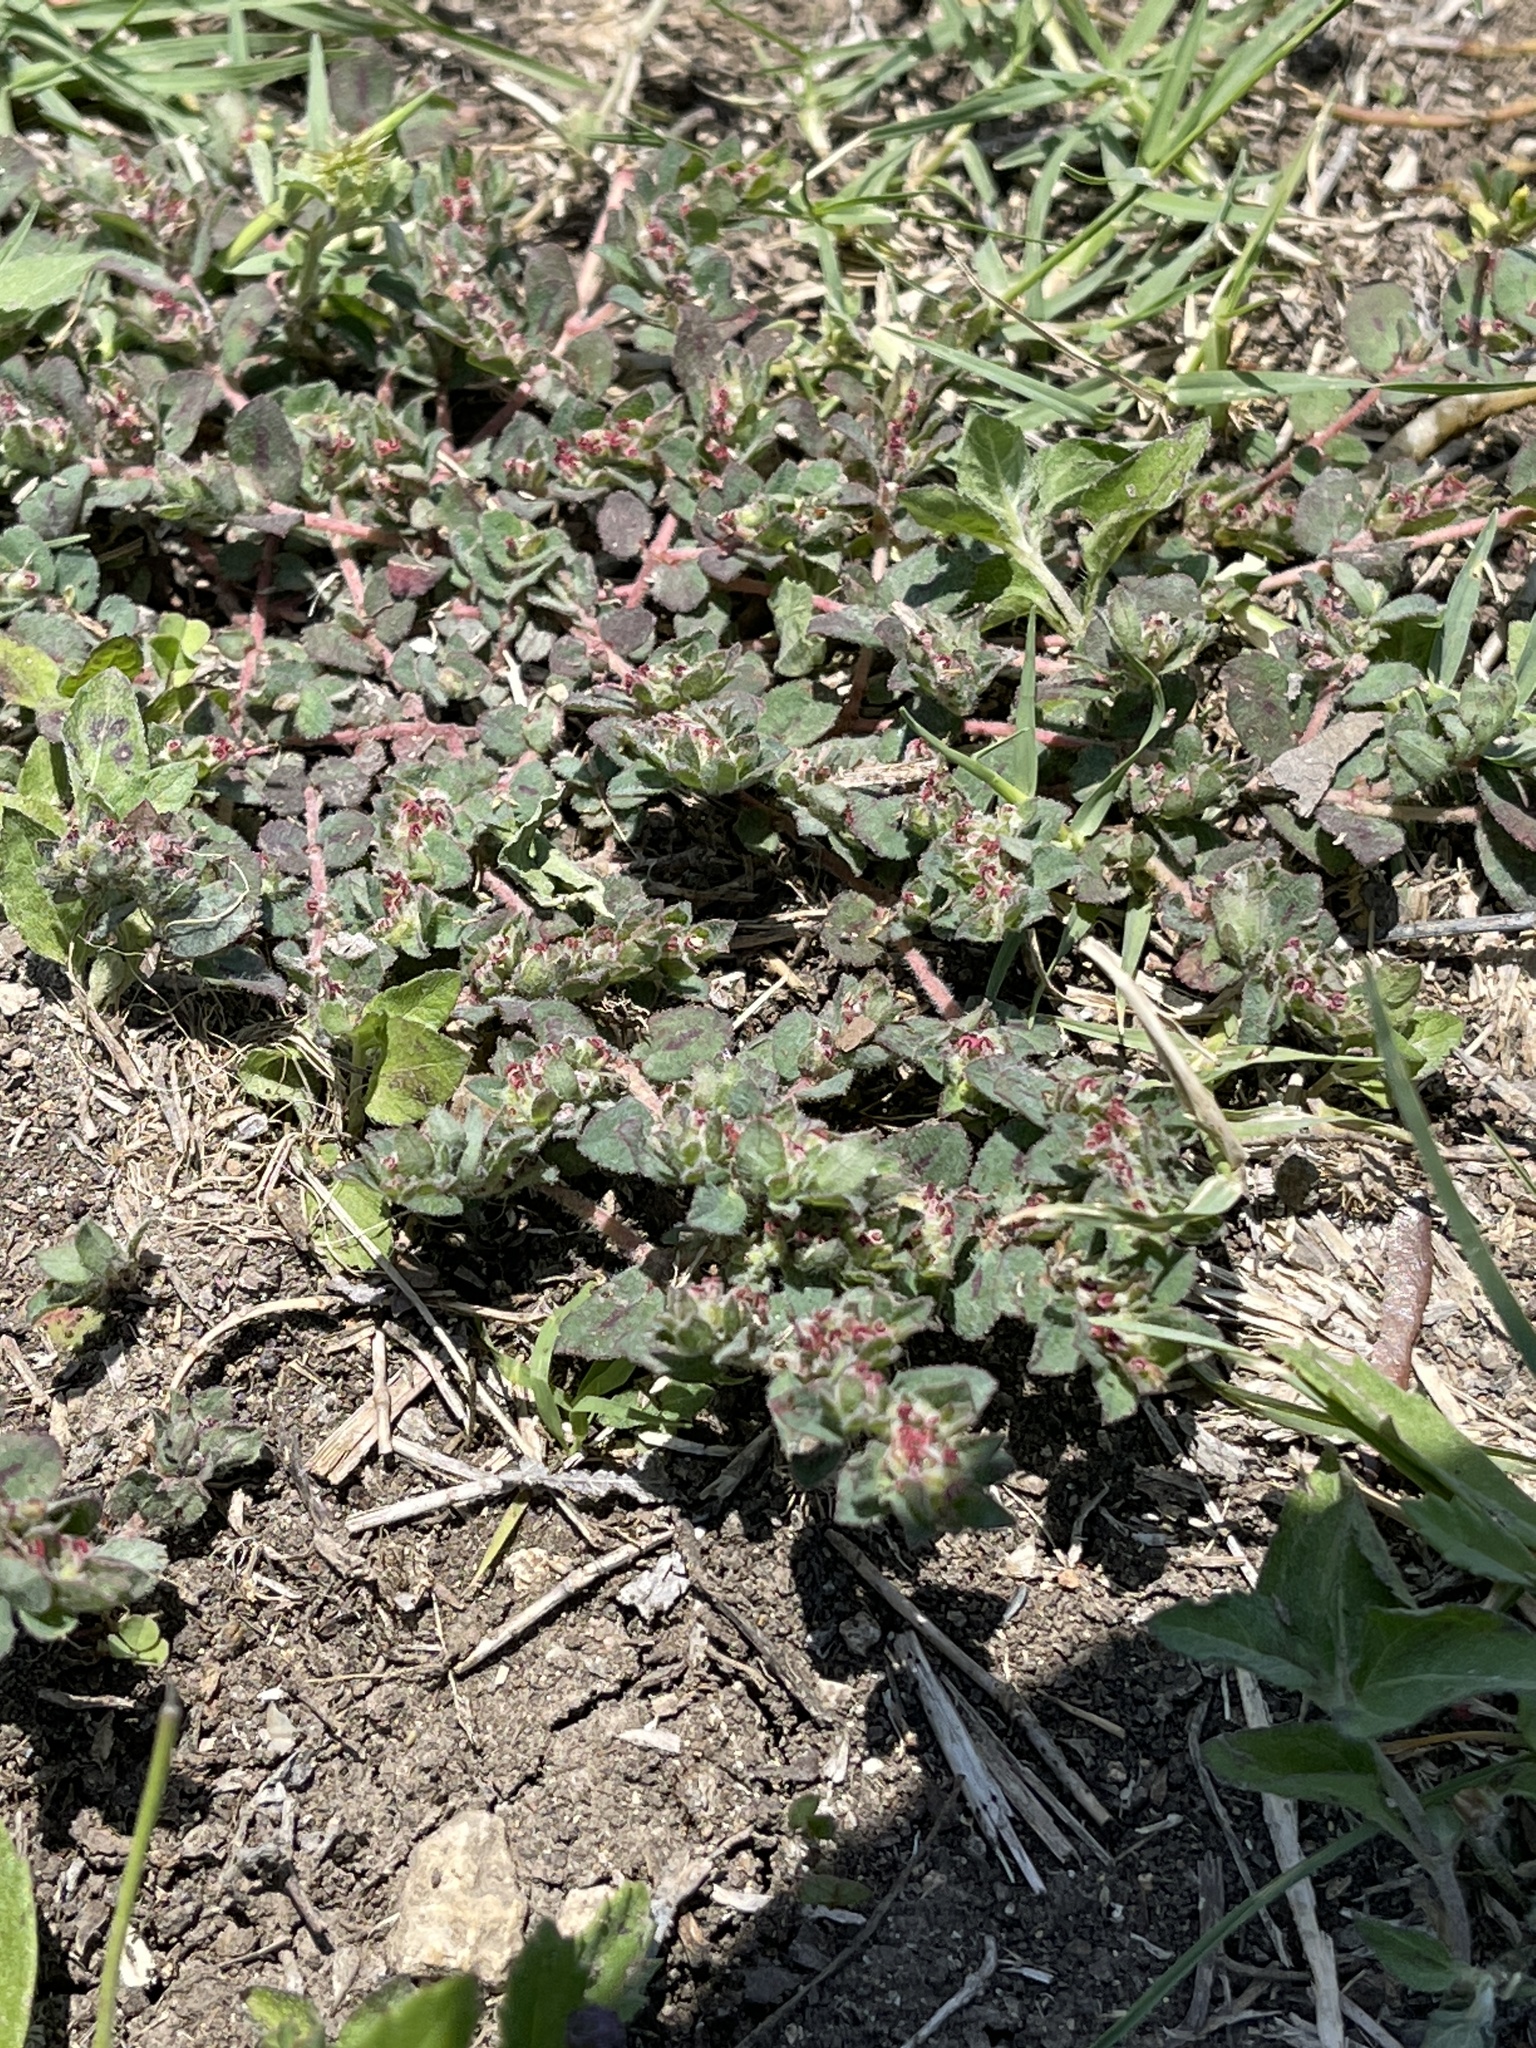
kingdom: Plantae
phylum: Tracheophyta
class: Magnoliopsida
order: Malpighiales
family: Euphorbiaceae
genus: Euphorbia
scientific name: Euphorbia velleriflora
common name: Caliche sandmat
